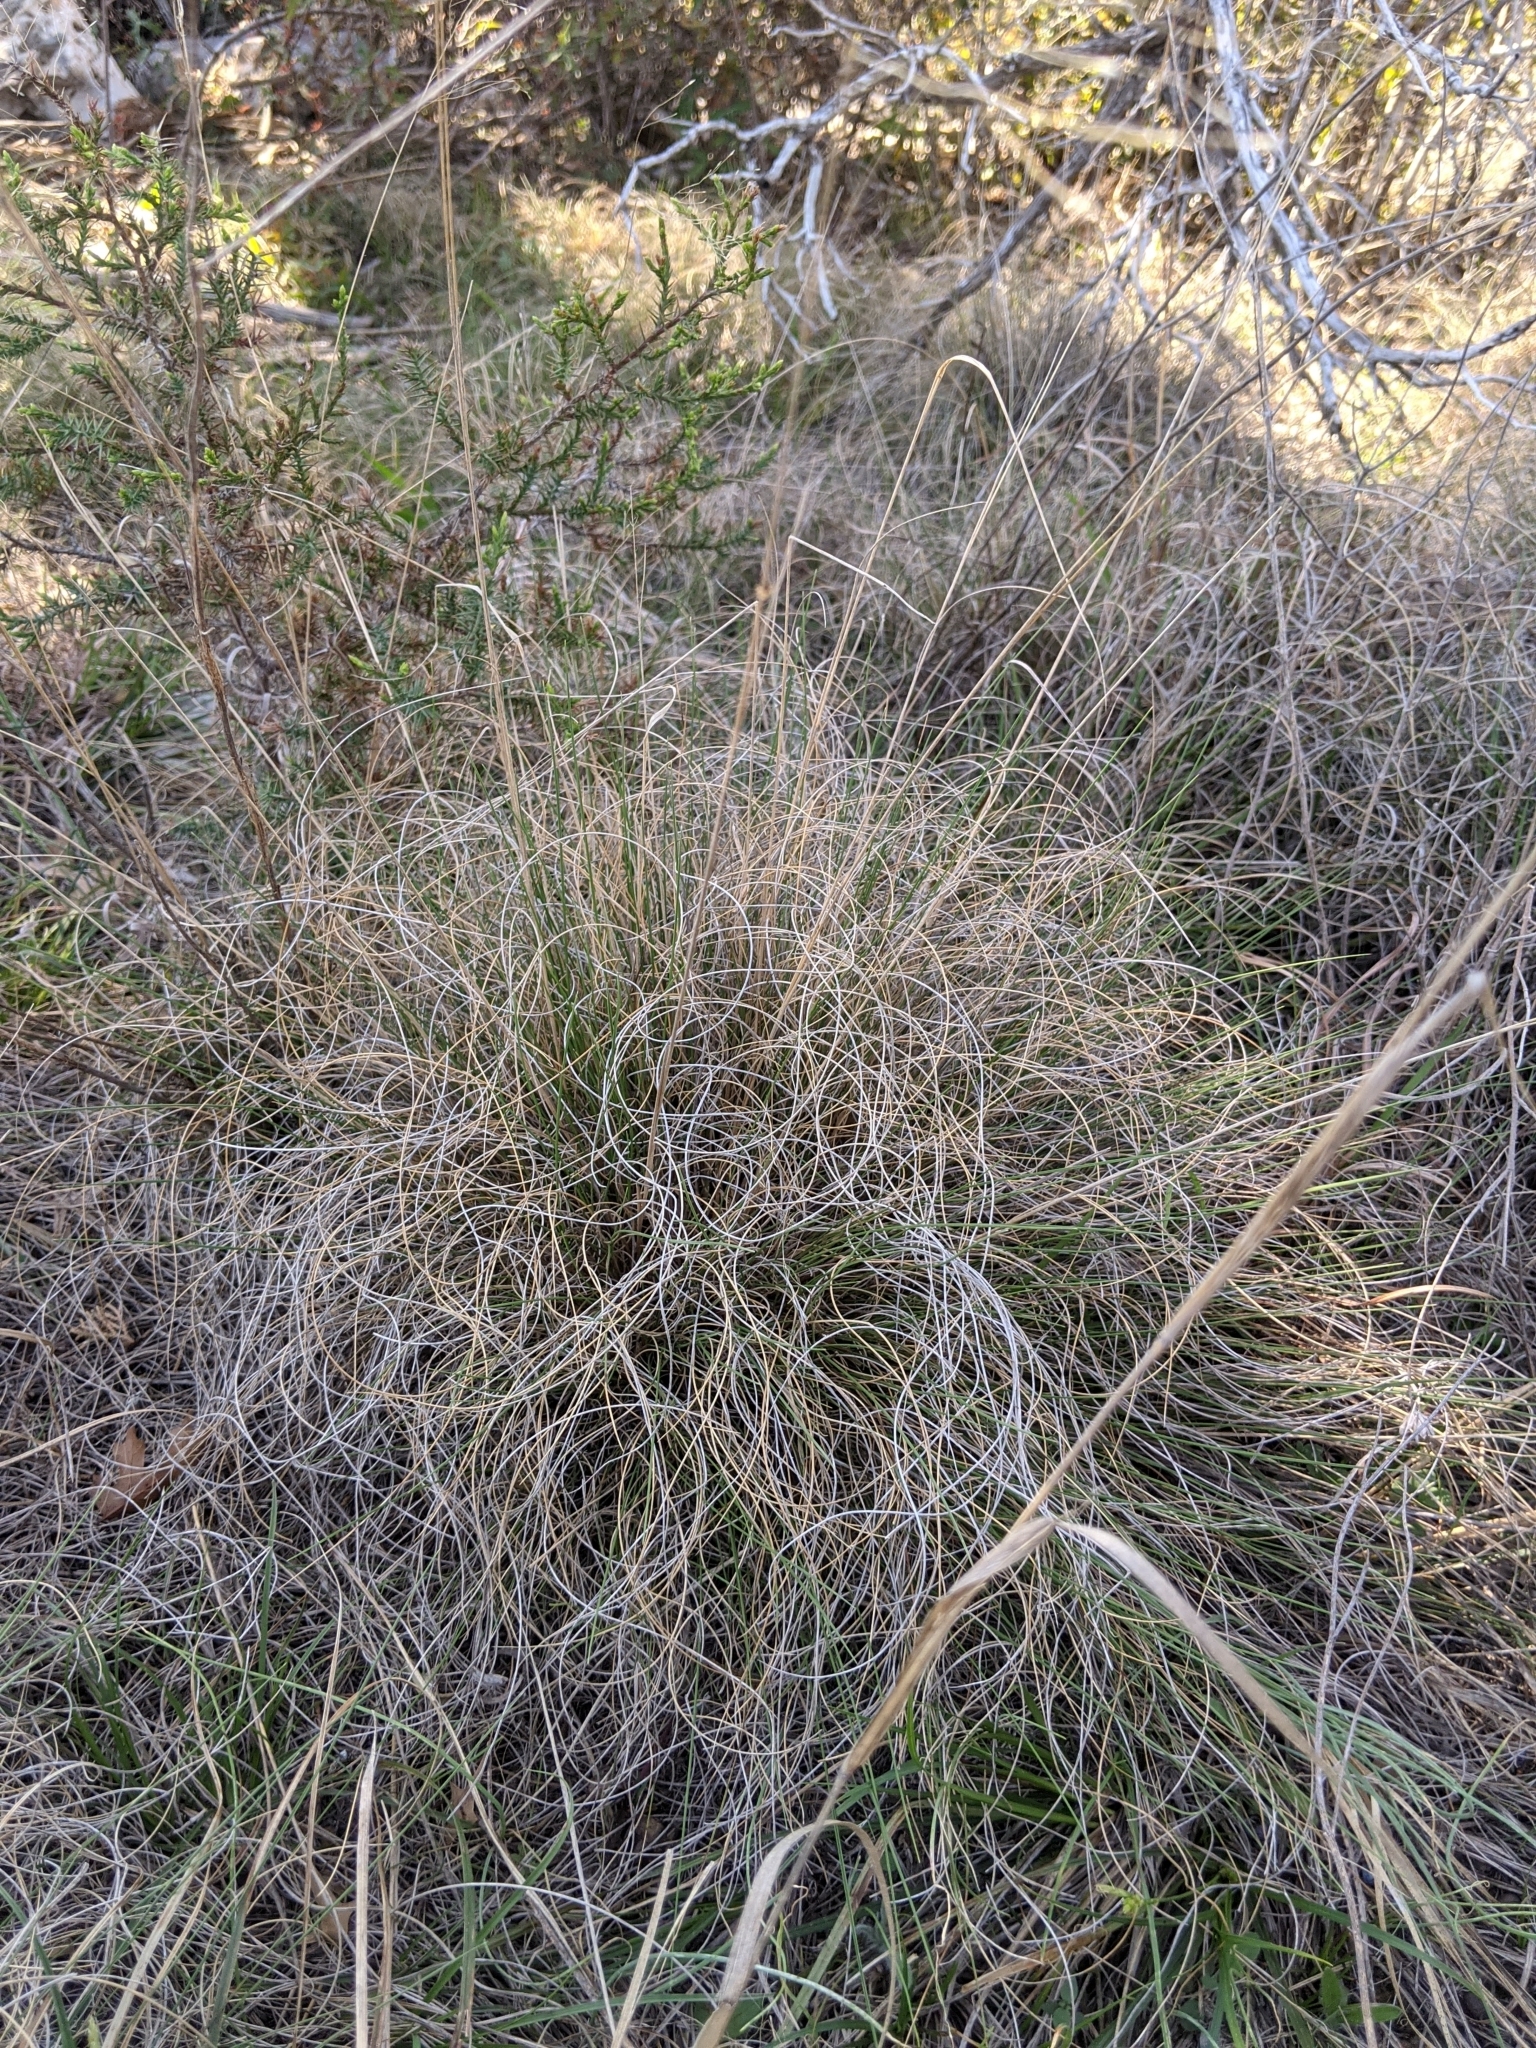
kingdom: Plantae
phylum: Tracheophyta
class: Liliopsida
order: Poales
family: Poaceae
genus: Muhlenbergia
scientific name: Muhlenbergia reverchonii
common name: Seep muhly
